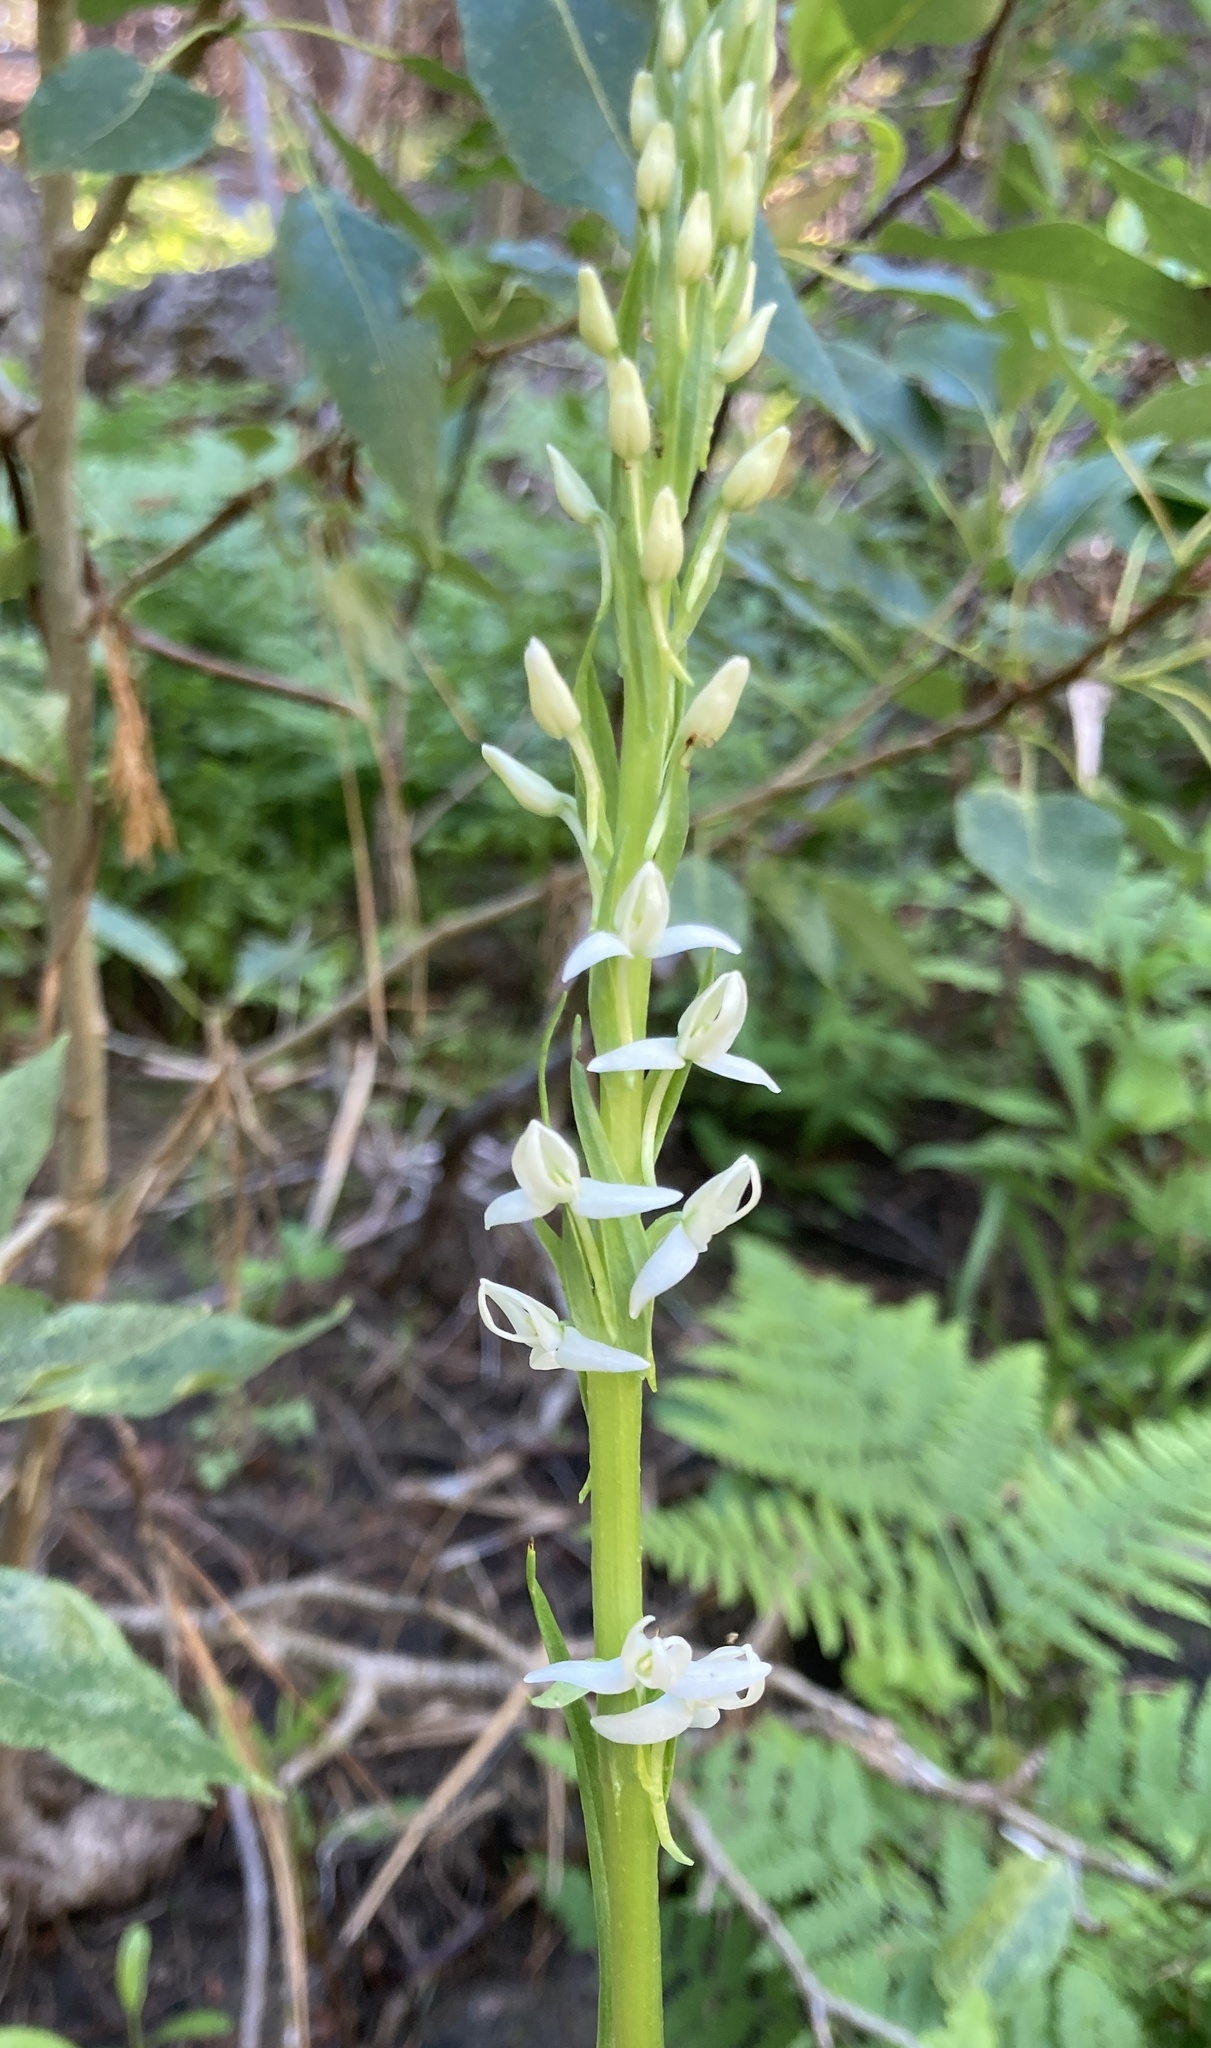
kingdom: Plantae
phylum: Tracheophyta
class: Liliopsida
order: Asparagales
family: Orchidaceae
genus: Platanthera
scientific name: Platanthera dilatata
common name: Bog candles
